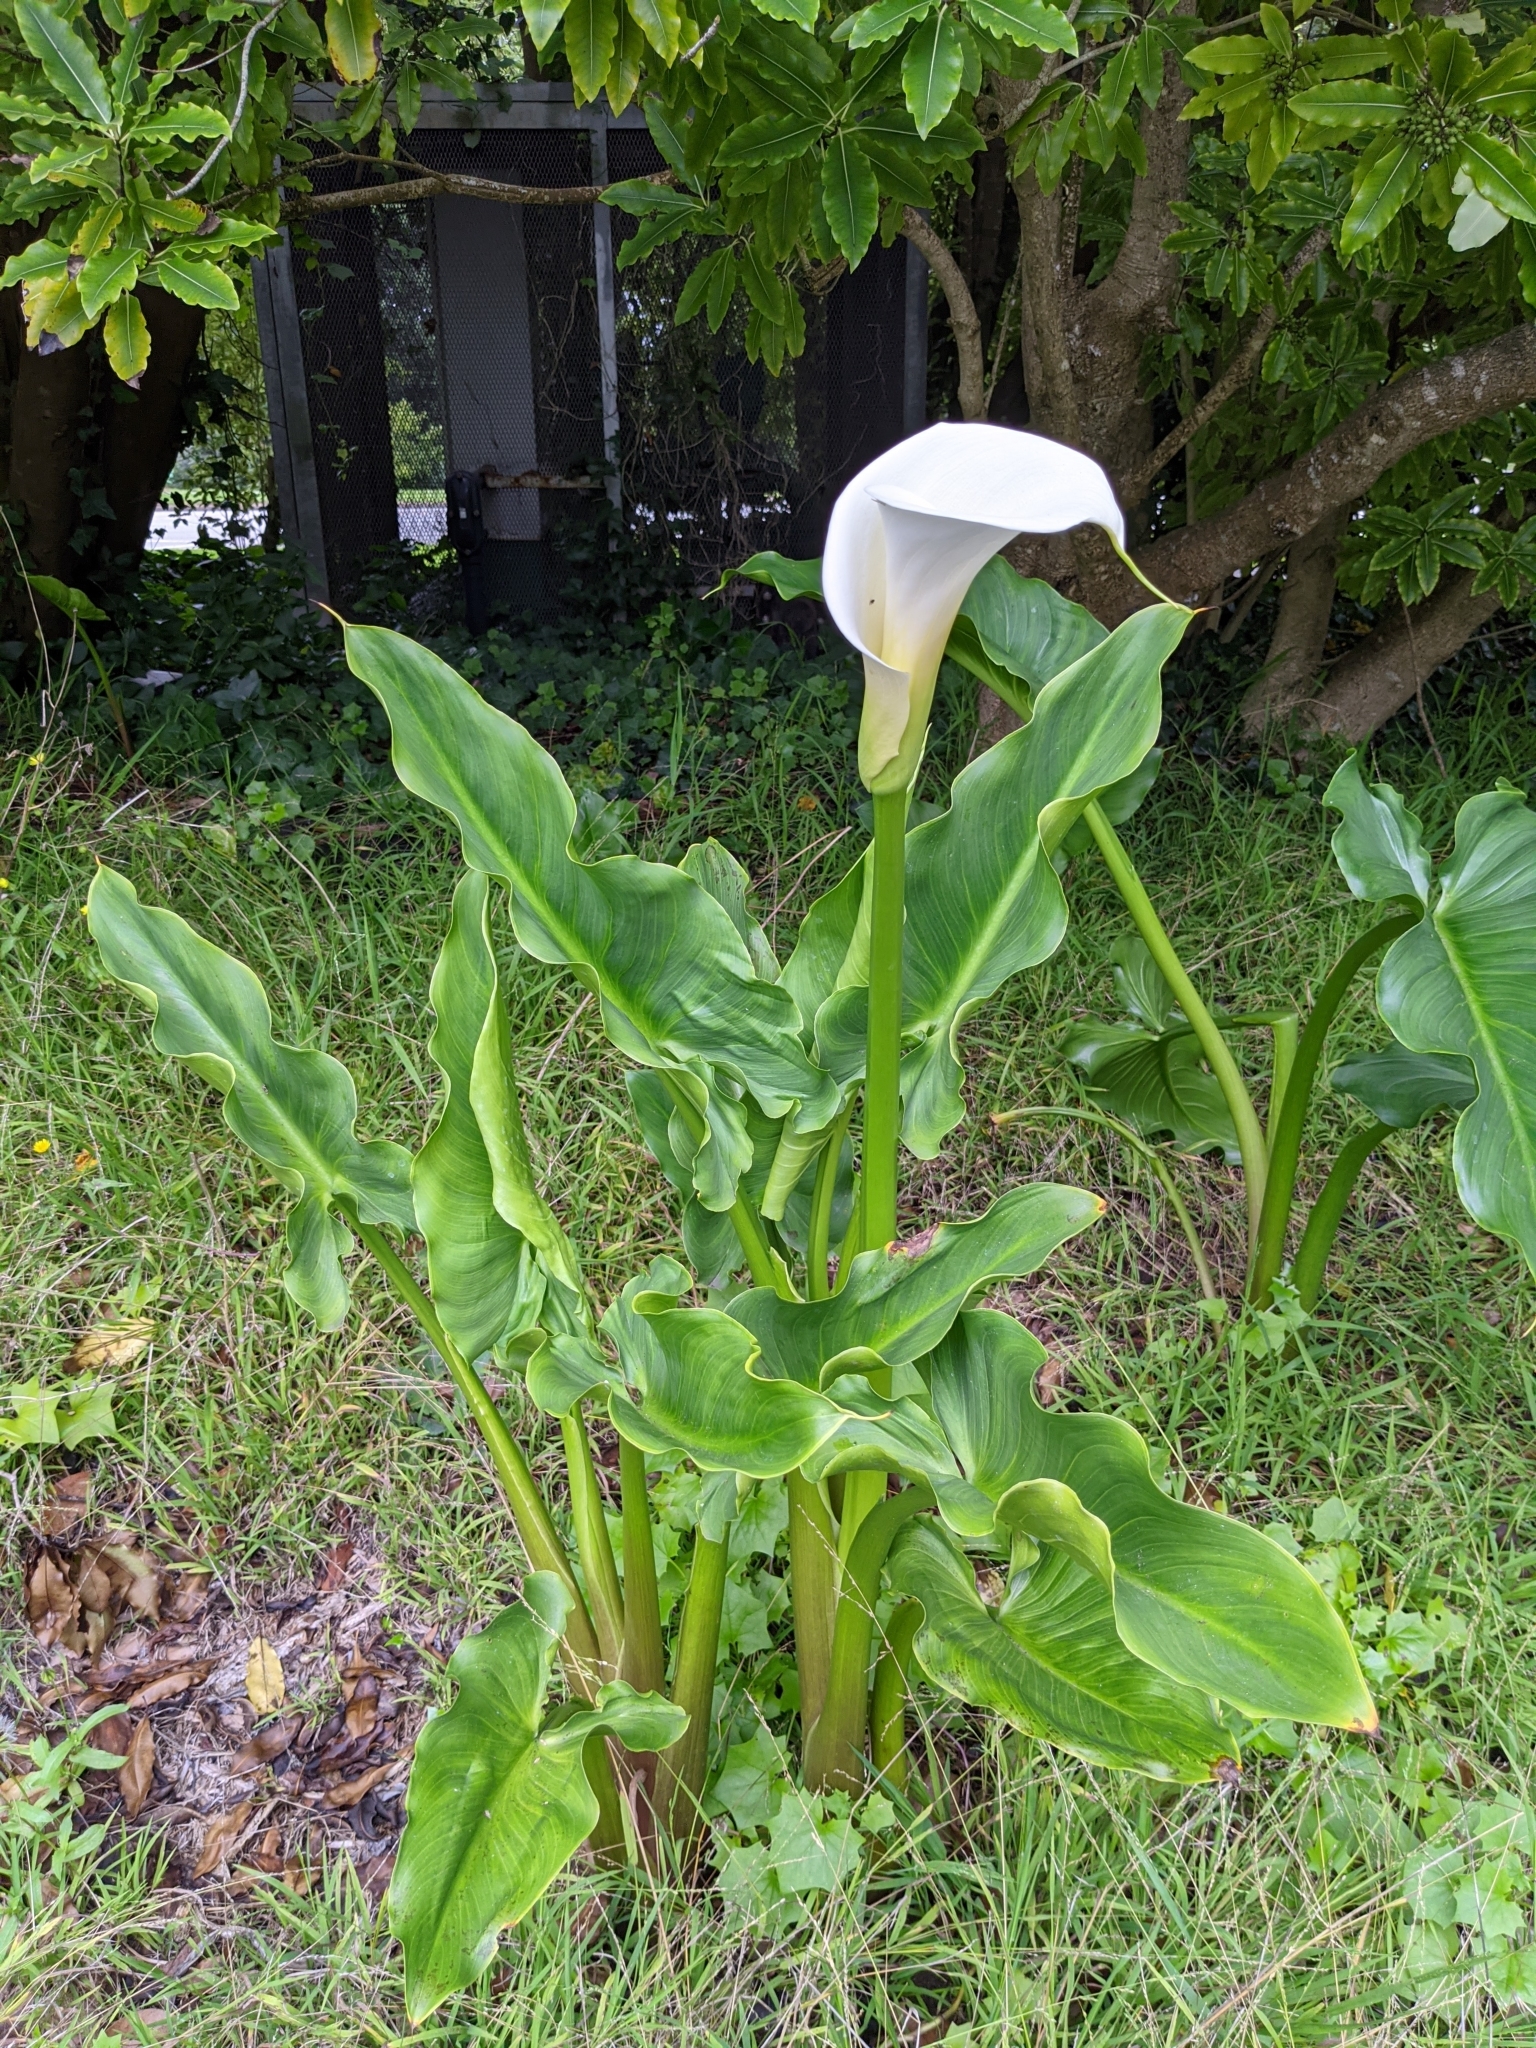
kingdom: Plantae
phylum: Tracheophyta
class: Liliopsida
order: Alismatales
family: Araceae
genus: Zantedeschia
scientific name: Zantedeschia aethiopica
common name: Altar-lily
